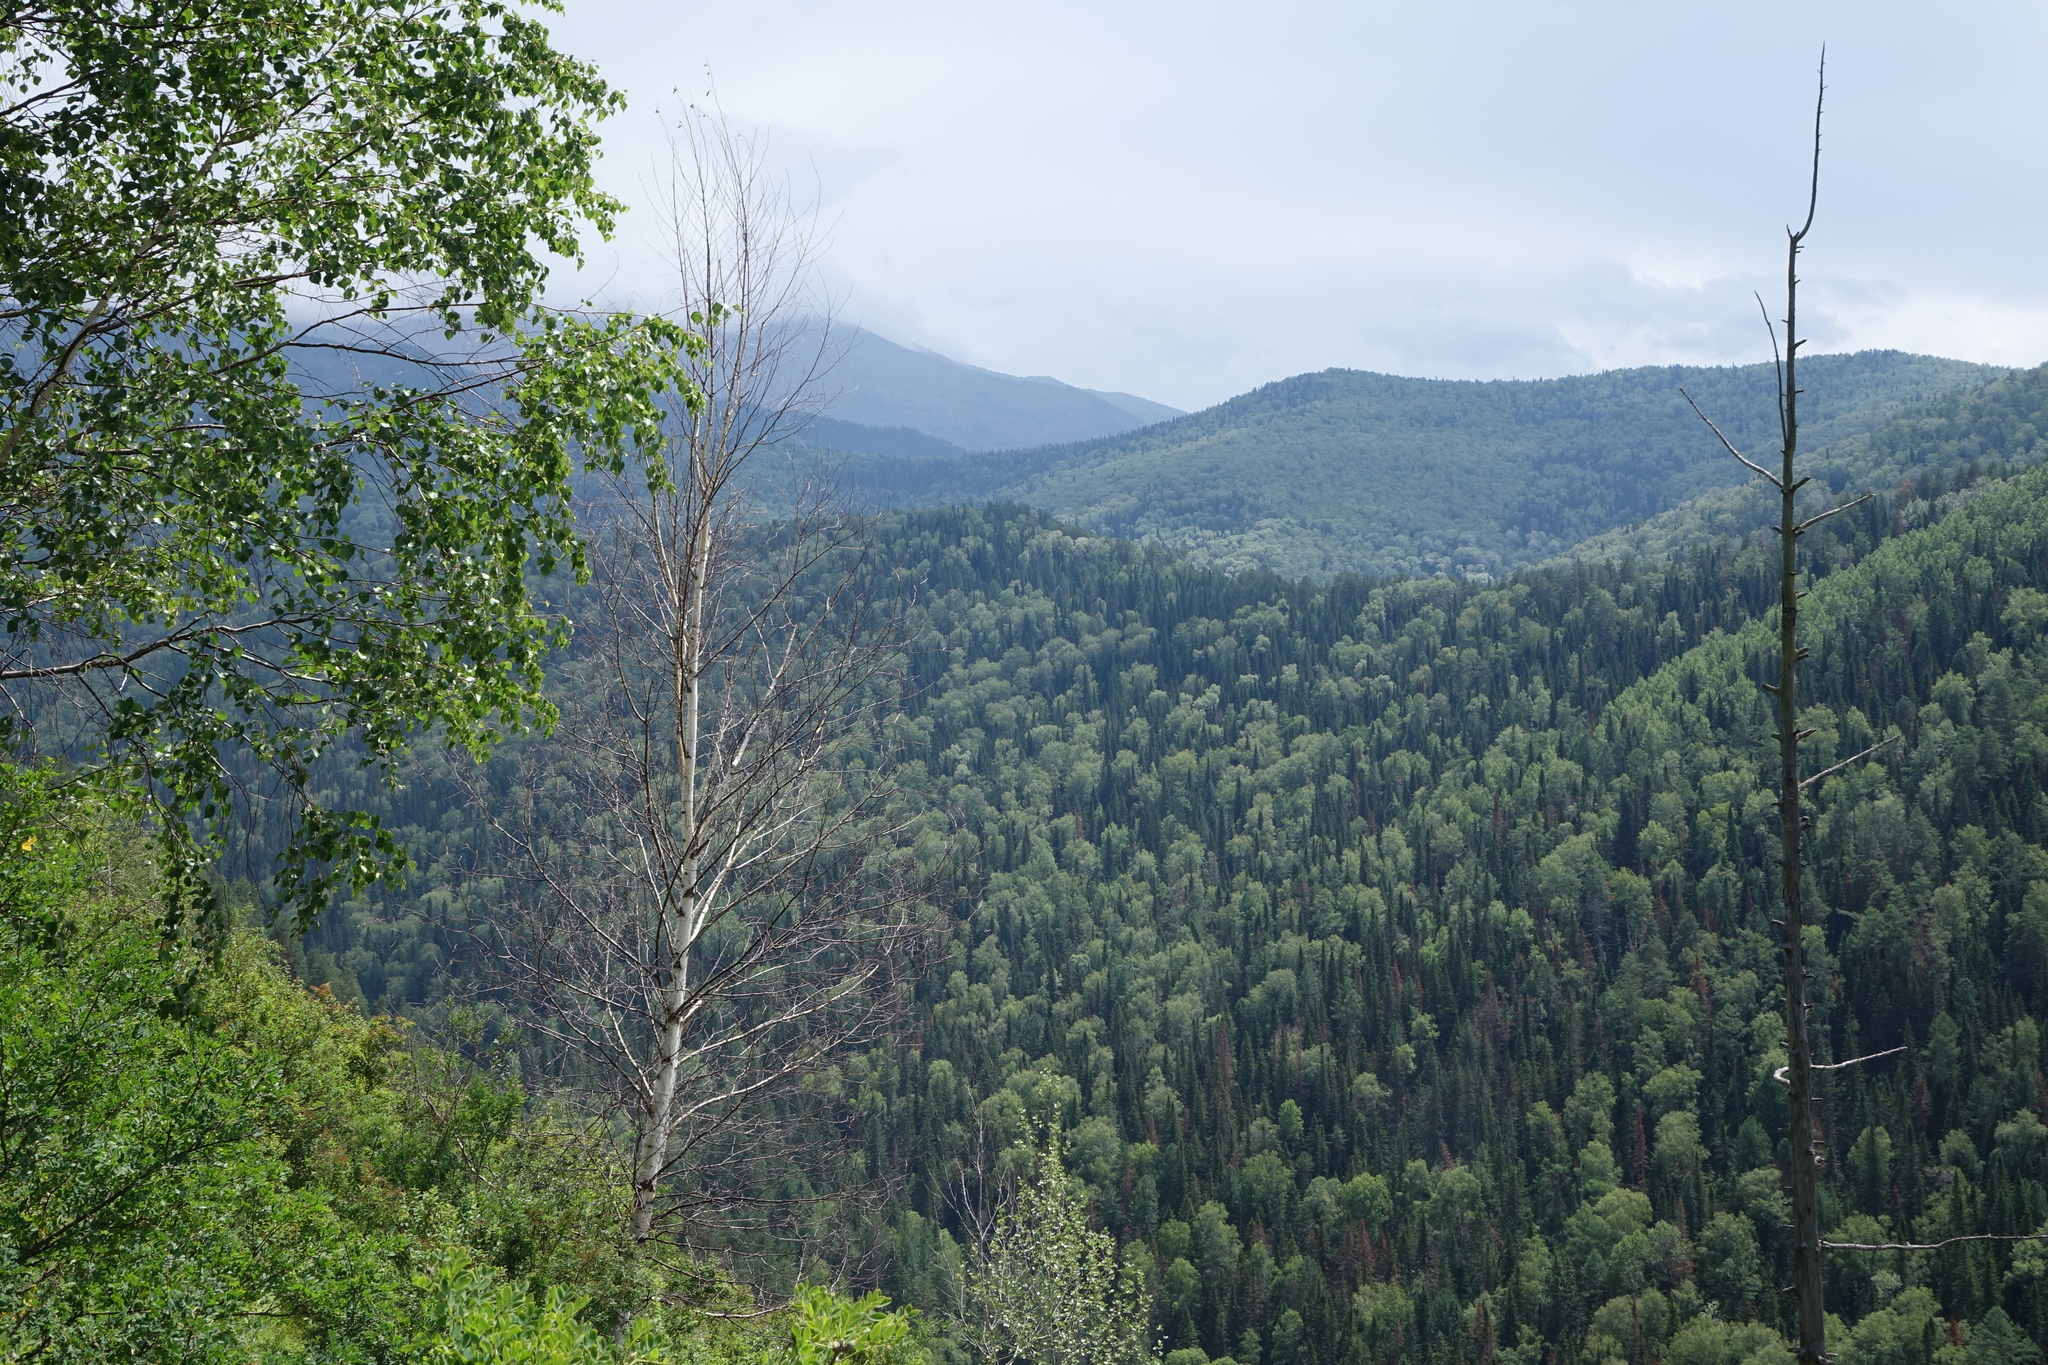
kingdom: Plantae
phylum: Tracheophyta
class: Magnoliopsida
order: Fagales
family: Betulaceae
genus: Betula
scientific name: Betula pendula
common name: Silver birch
